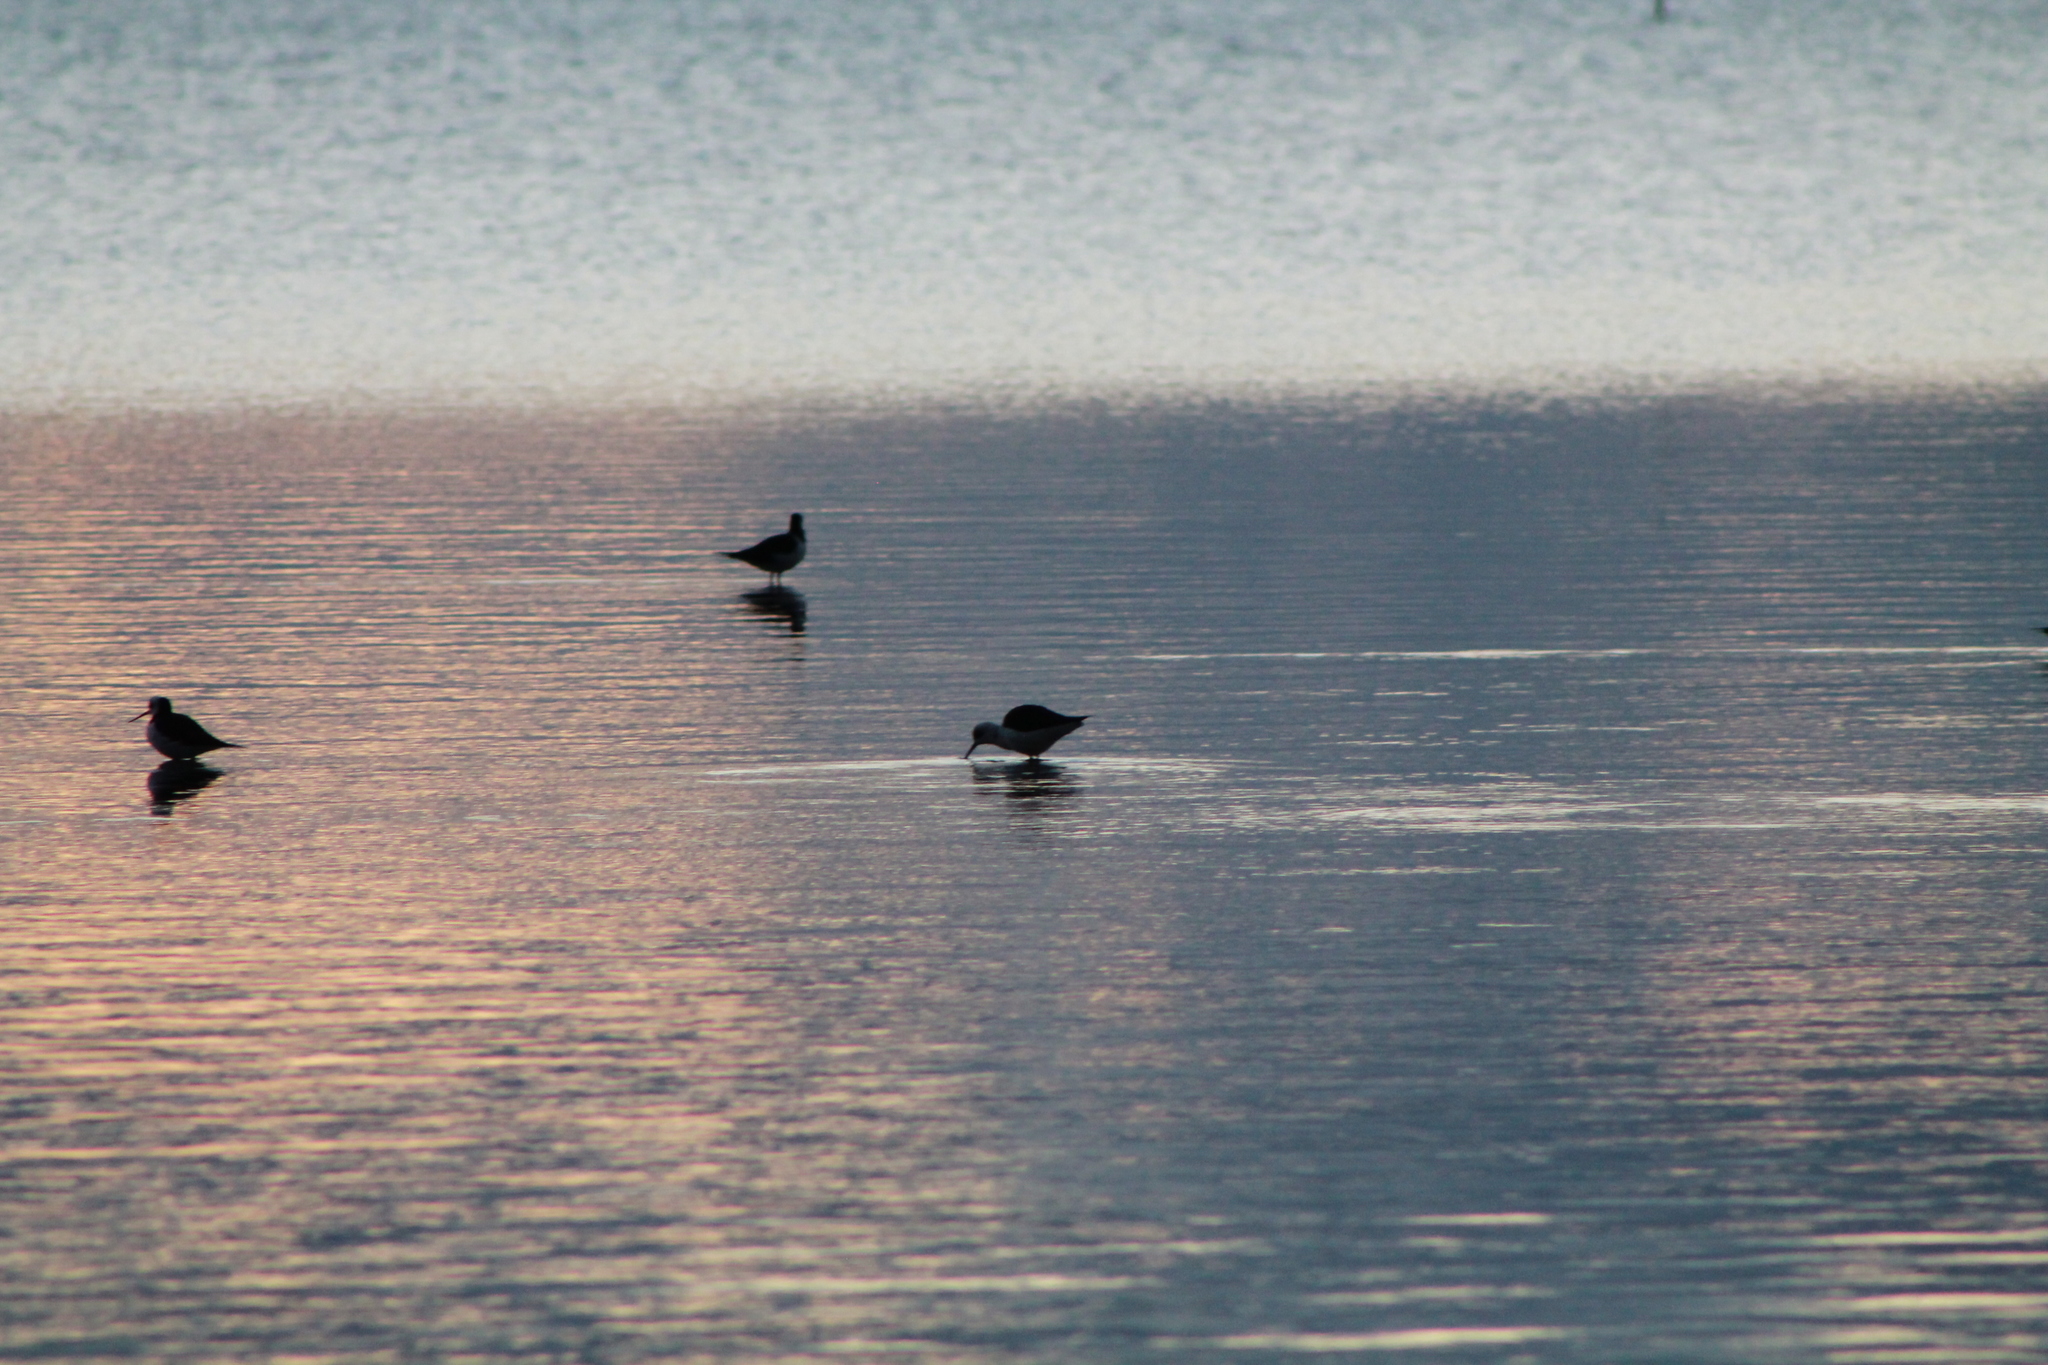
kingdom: Animalia
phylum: Chordata
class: Aves
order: Charadriiformes
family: Recurvirostridae
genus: Himantopus
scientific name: Himantopus leucocephalus
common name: White-headed stilt
